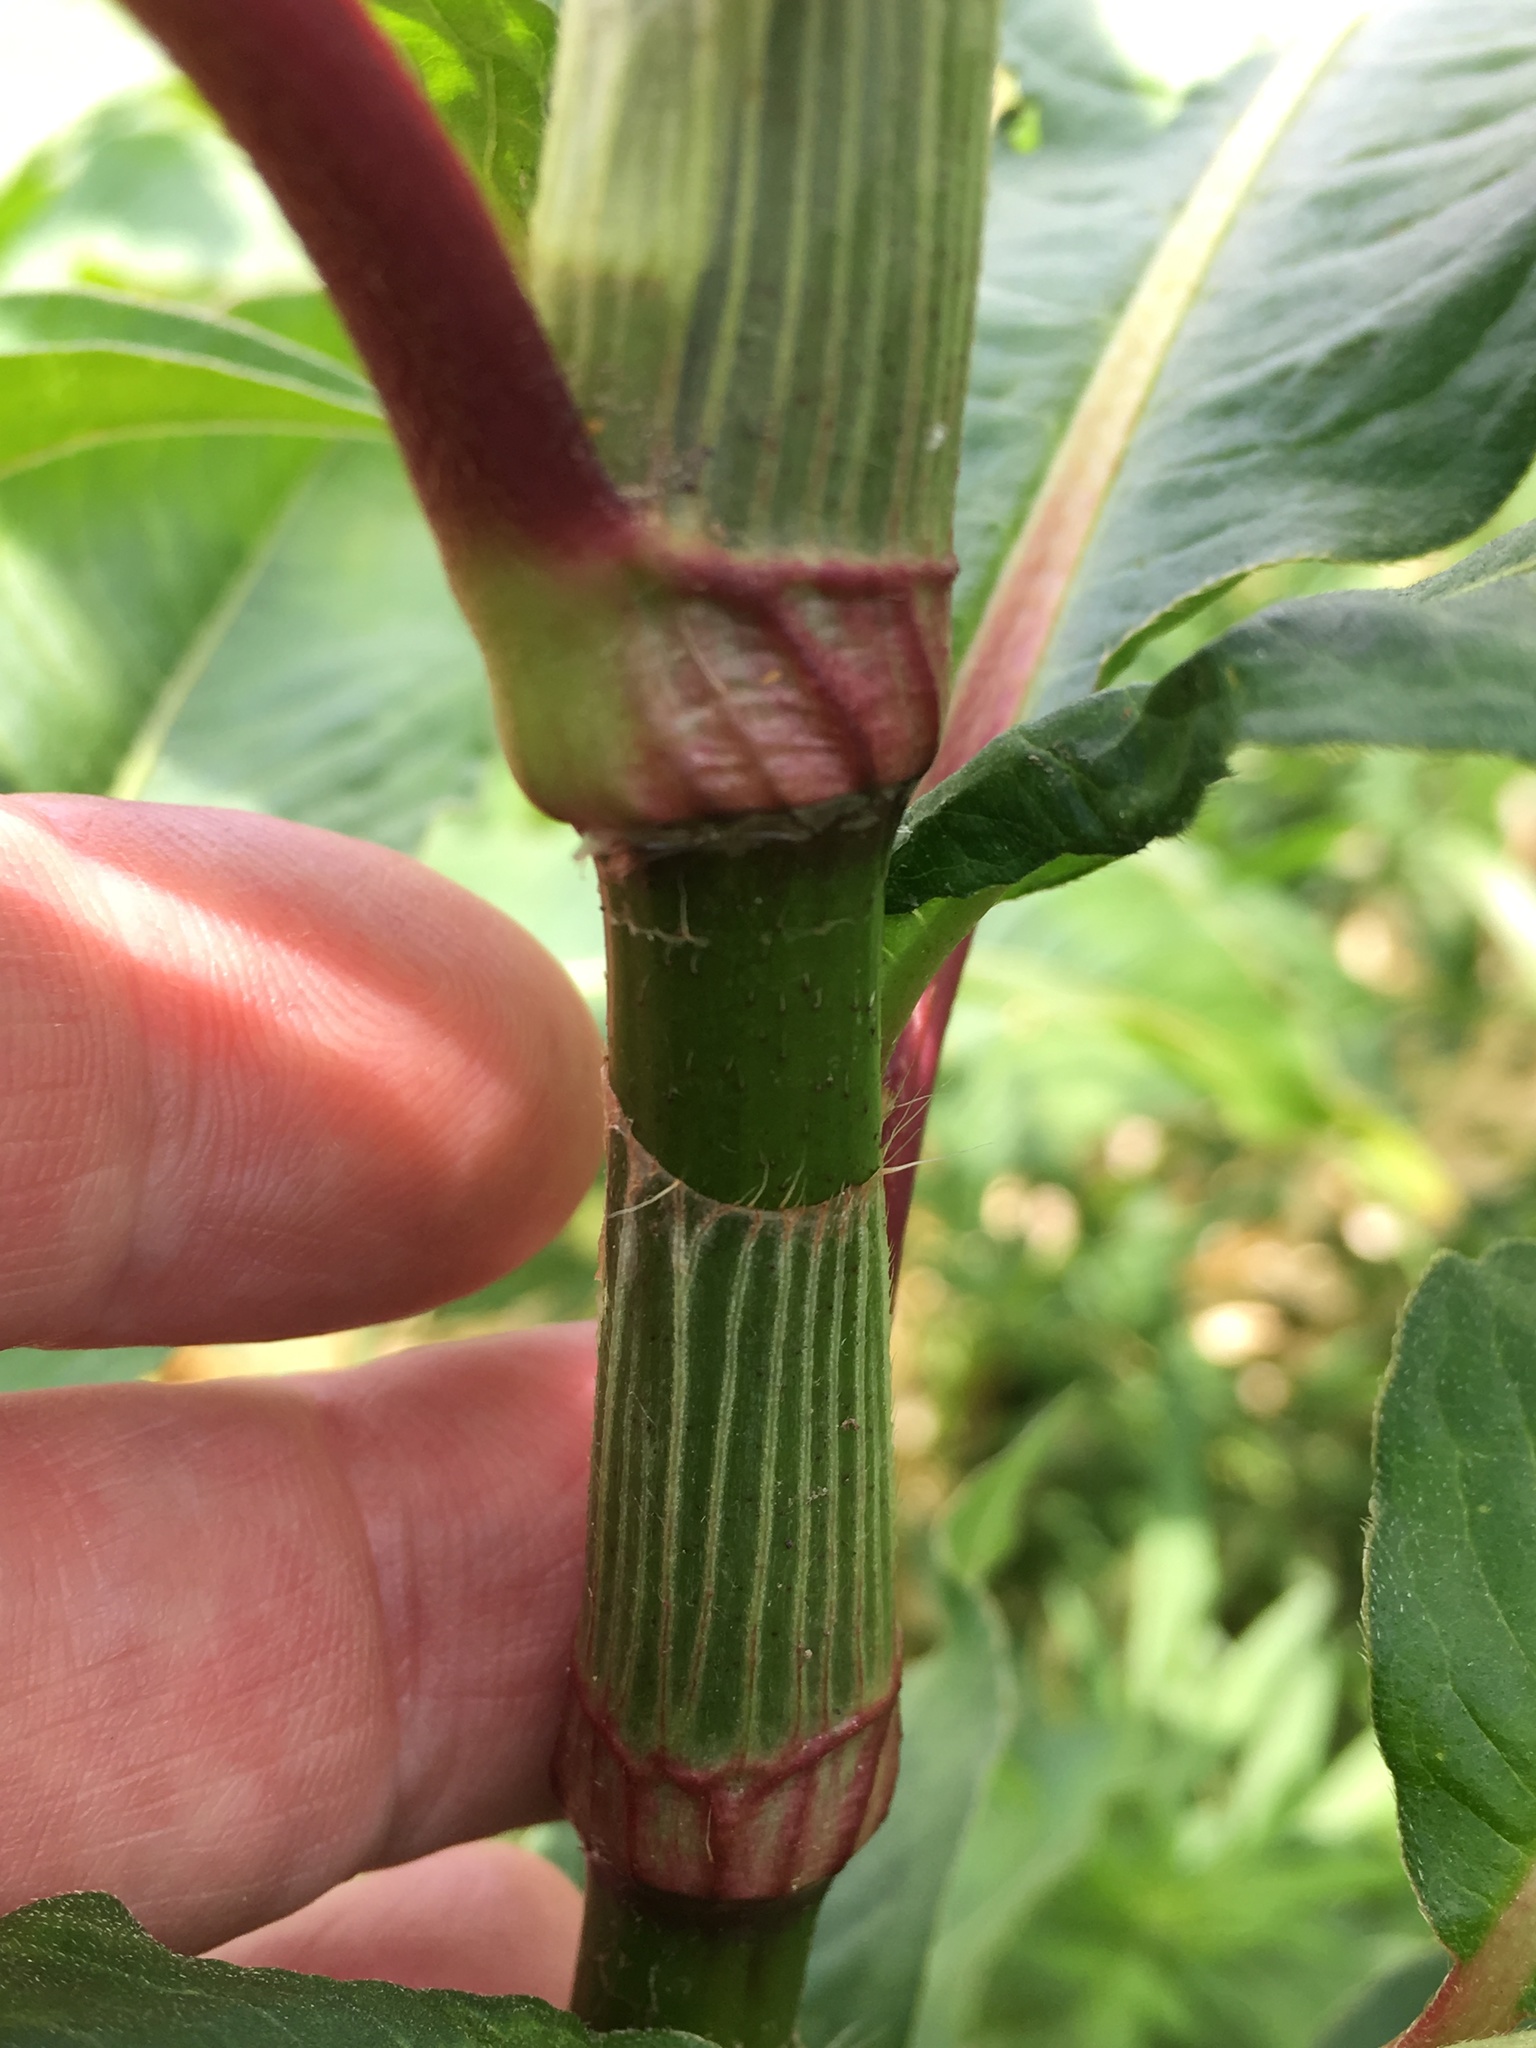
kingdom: Plantae
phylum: Tracheophyta
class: Magnoliopsida
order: Caryophyllales
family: Polygonaceae
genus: Persicaria
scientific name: Persicaria extremiorientalis
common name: Far-eastern smartweed
